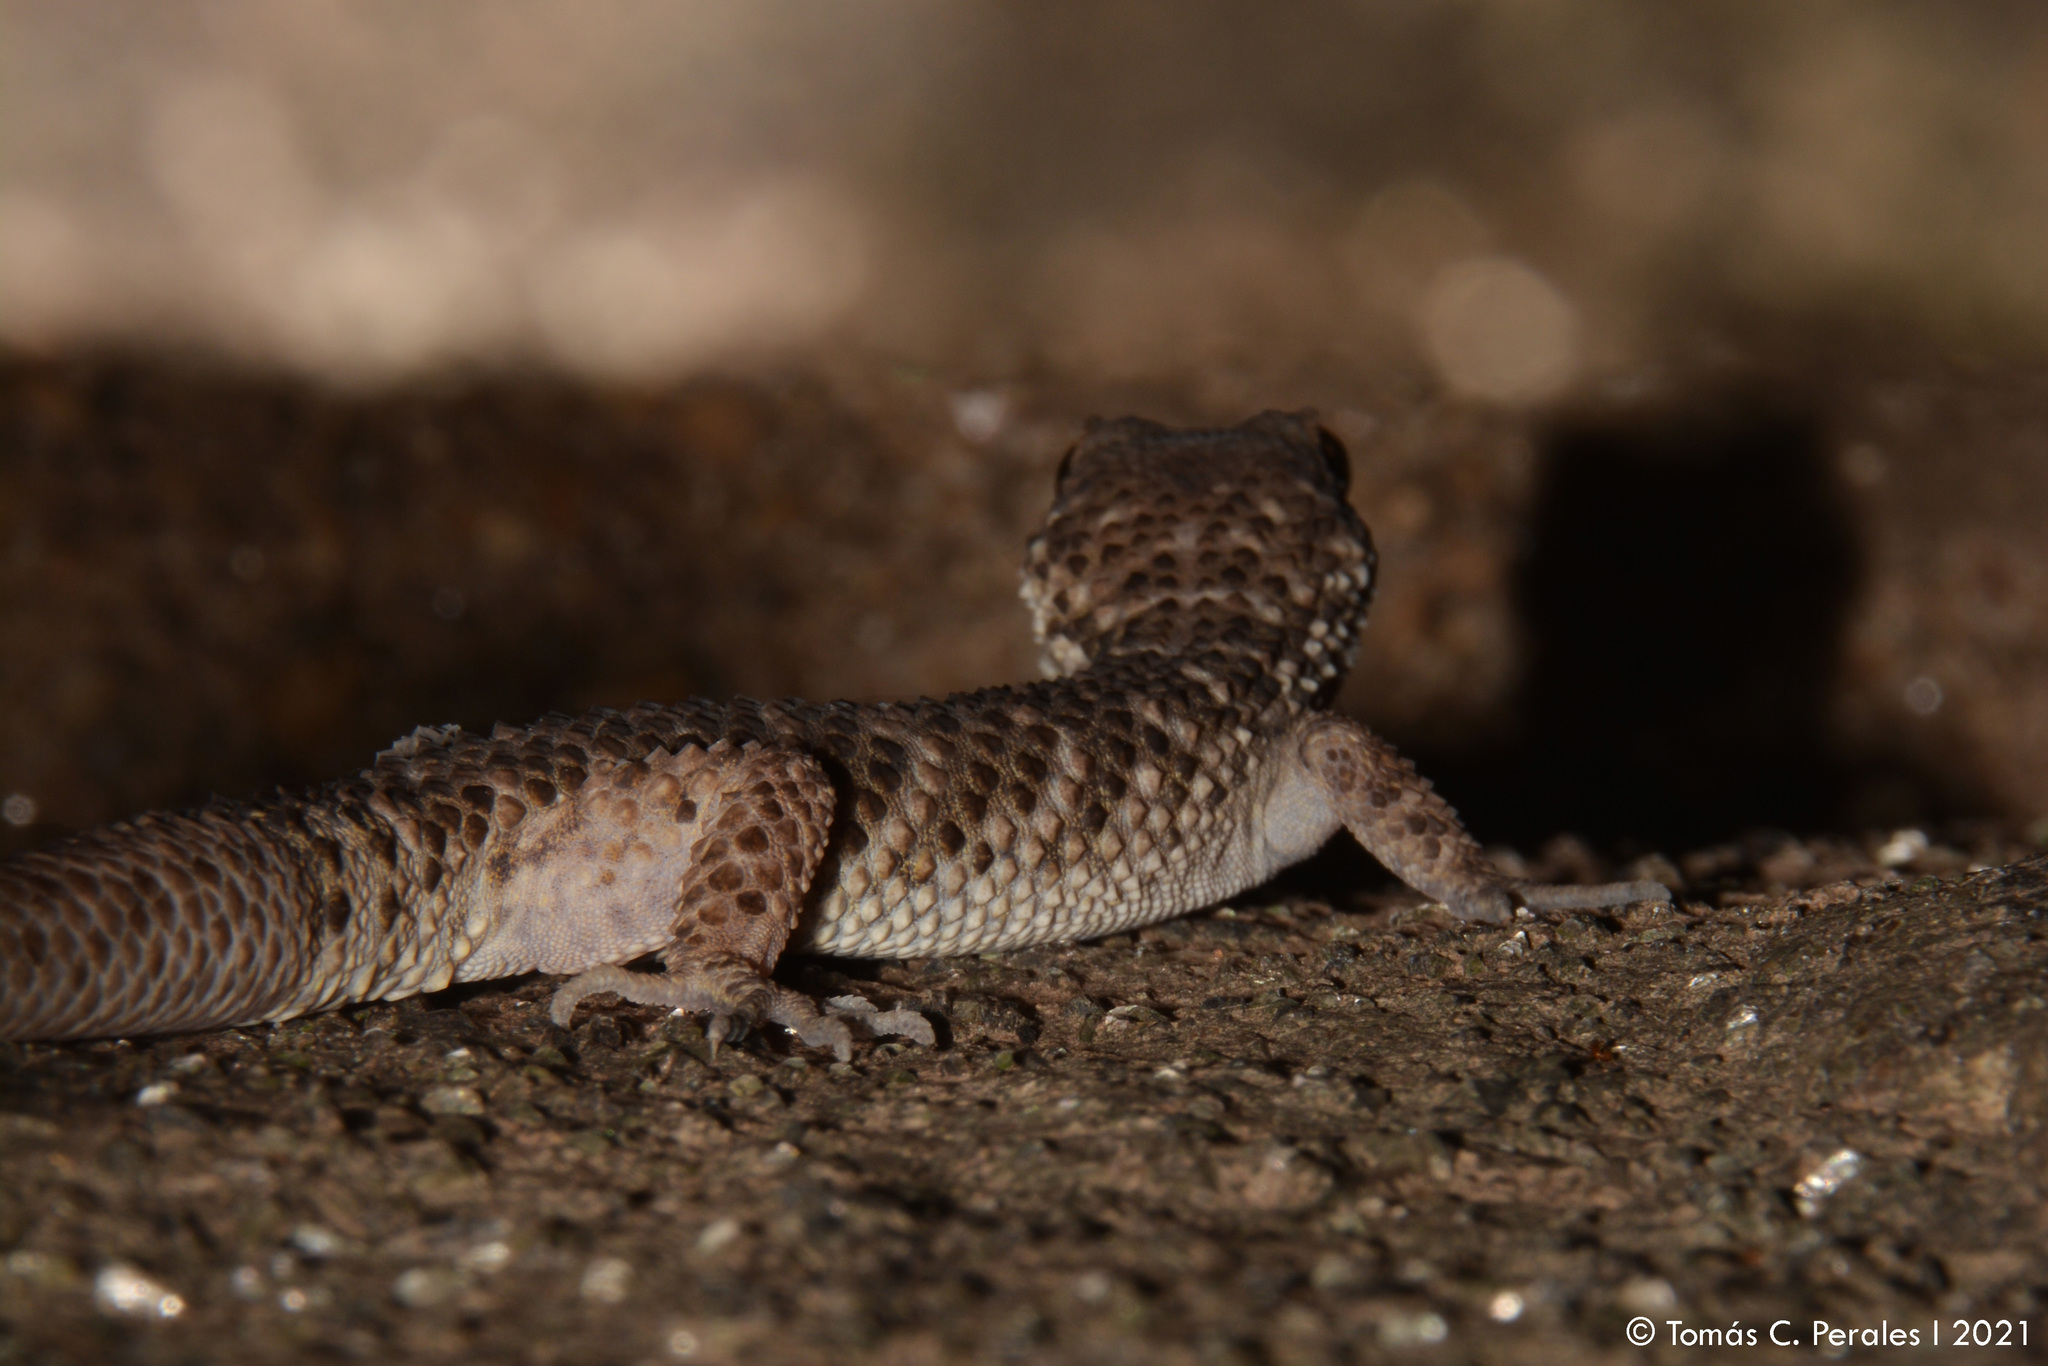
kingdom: Animalia
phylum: Chordata
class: Squamata
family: Phyllodactylidae
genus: Homonota
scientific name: Homonota horrida
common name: South american marked gecko
